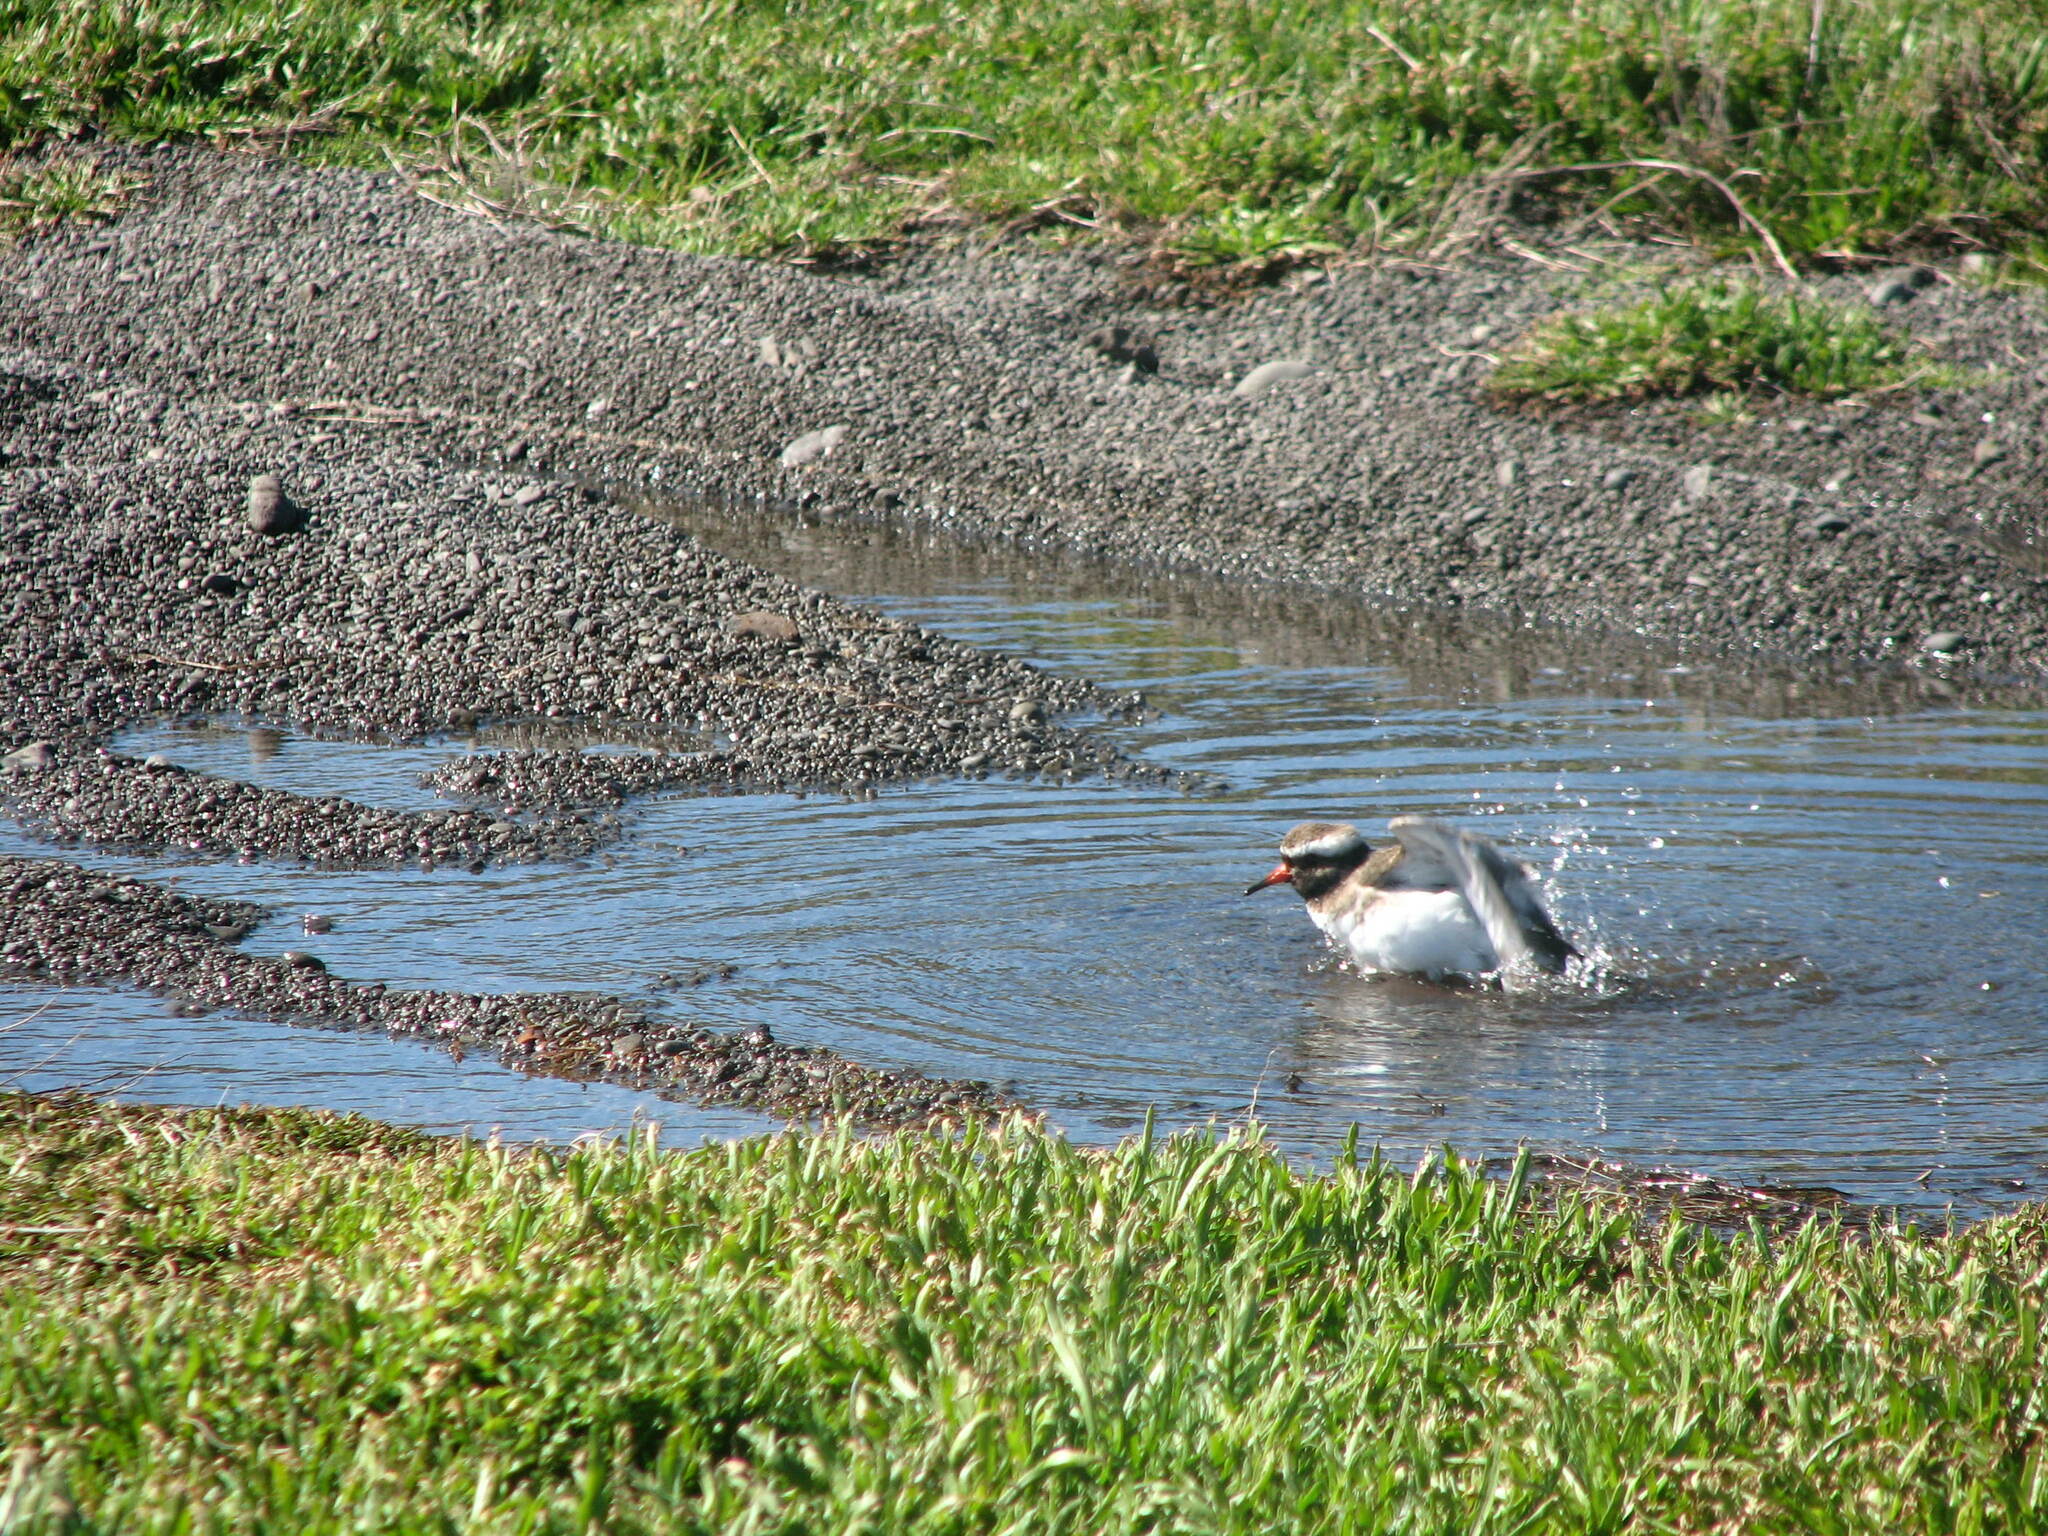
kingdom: Animalia
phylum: Chordata
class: Aves
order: Charadriiformes
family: Charadriidae
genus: Thinornis
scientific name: Thinornis novaeseelandiae
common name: Shore dotterel
